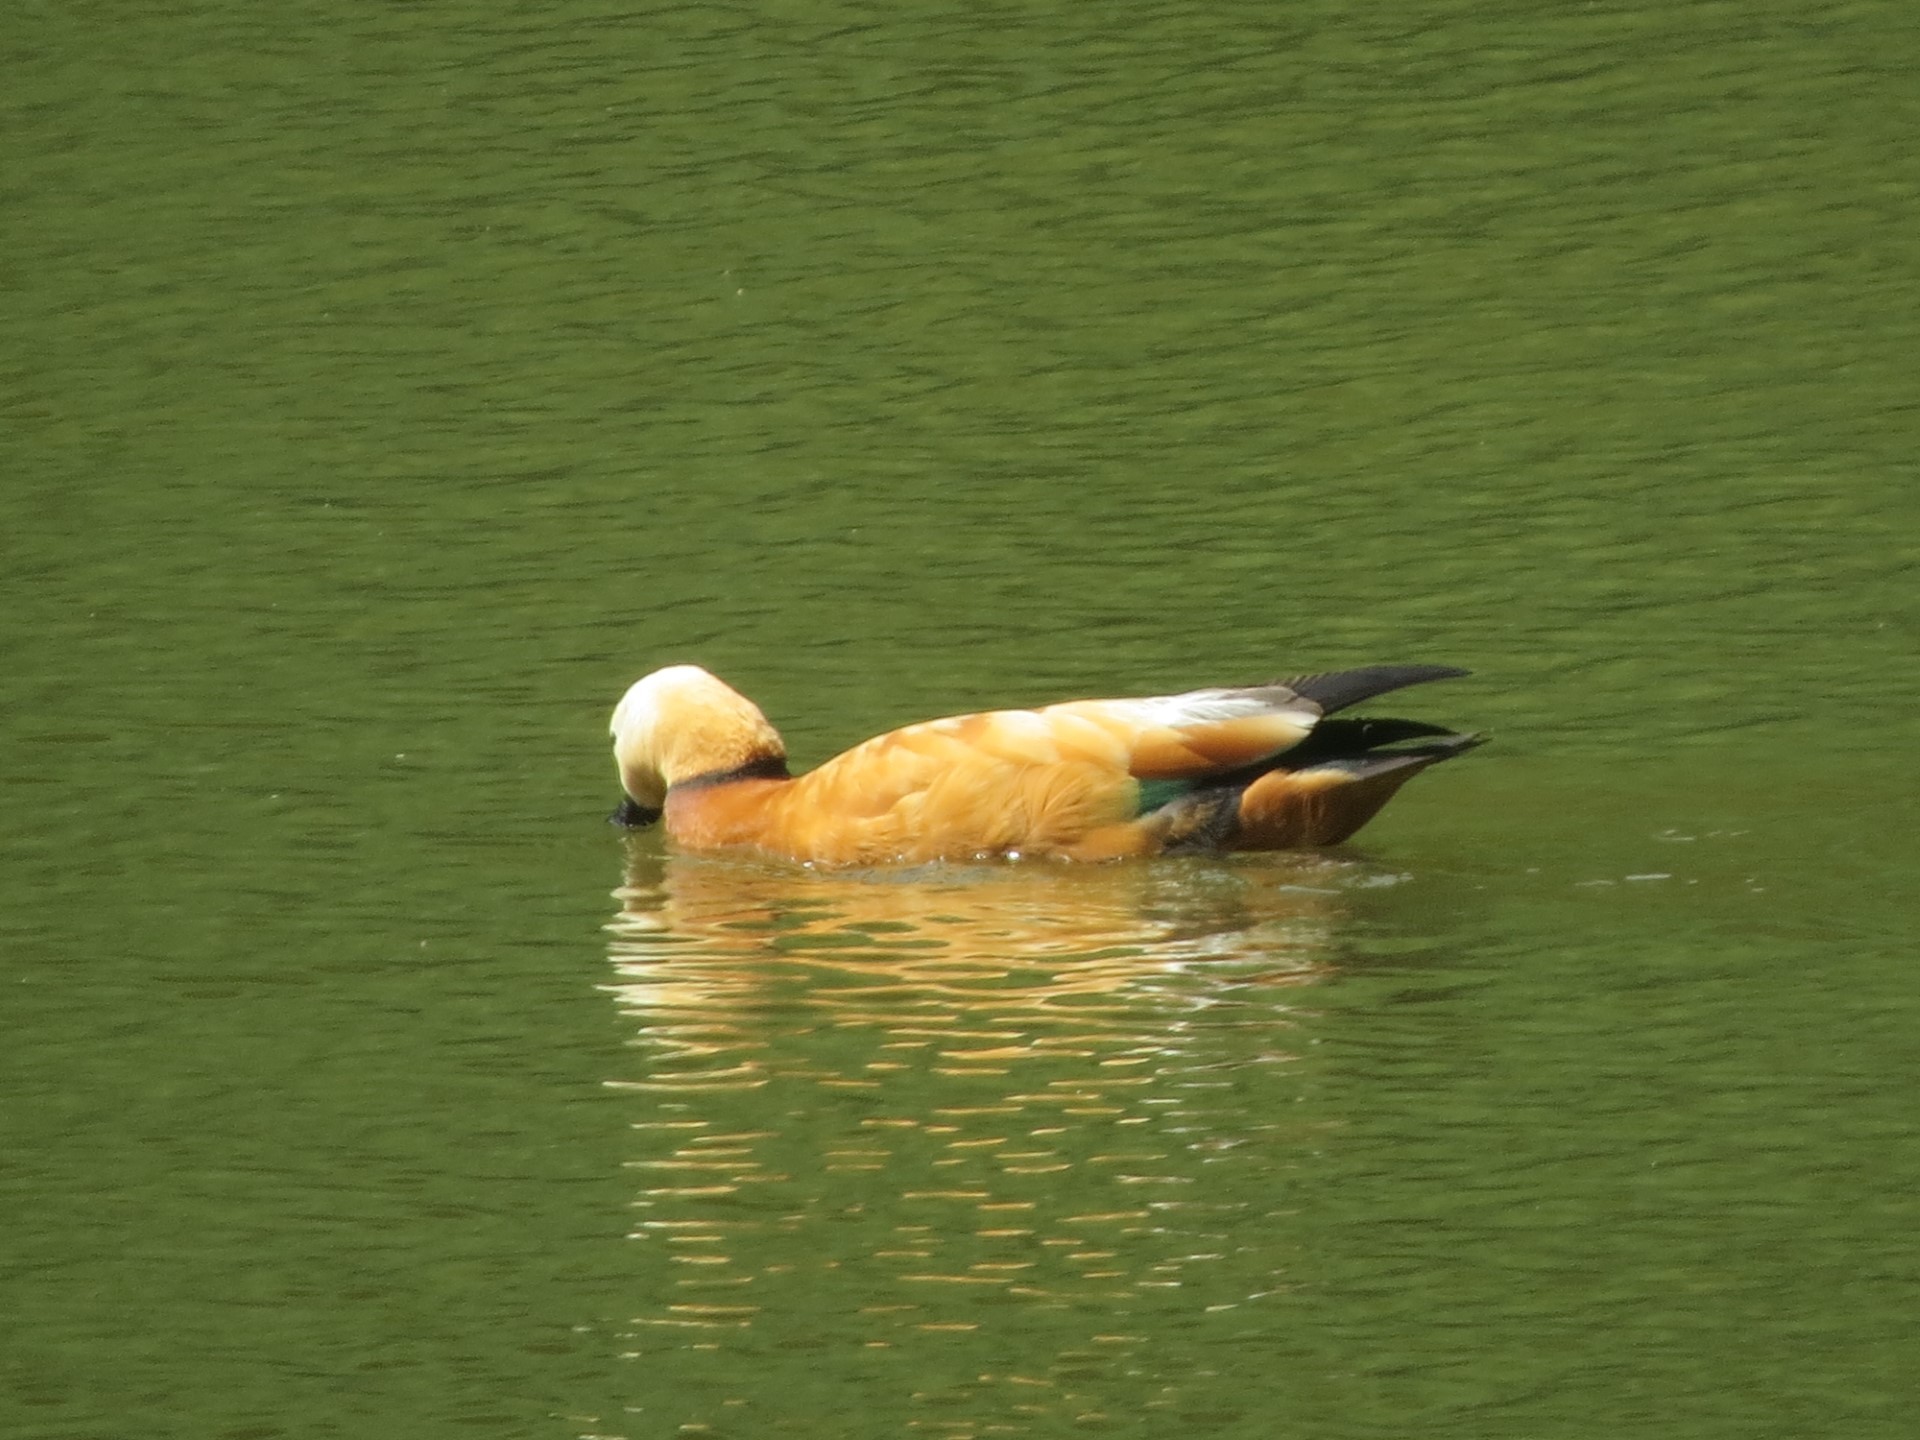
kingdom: Animalia
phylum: Chordata
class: Aves
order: Anseriformes
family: Anatidae
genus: Tadorna
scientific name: Tadorna ferruginea
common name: Ruddy shelduck
